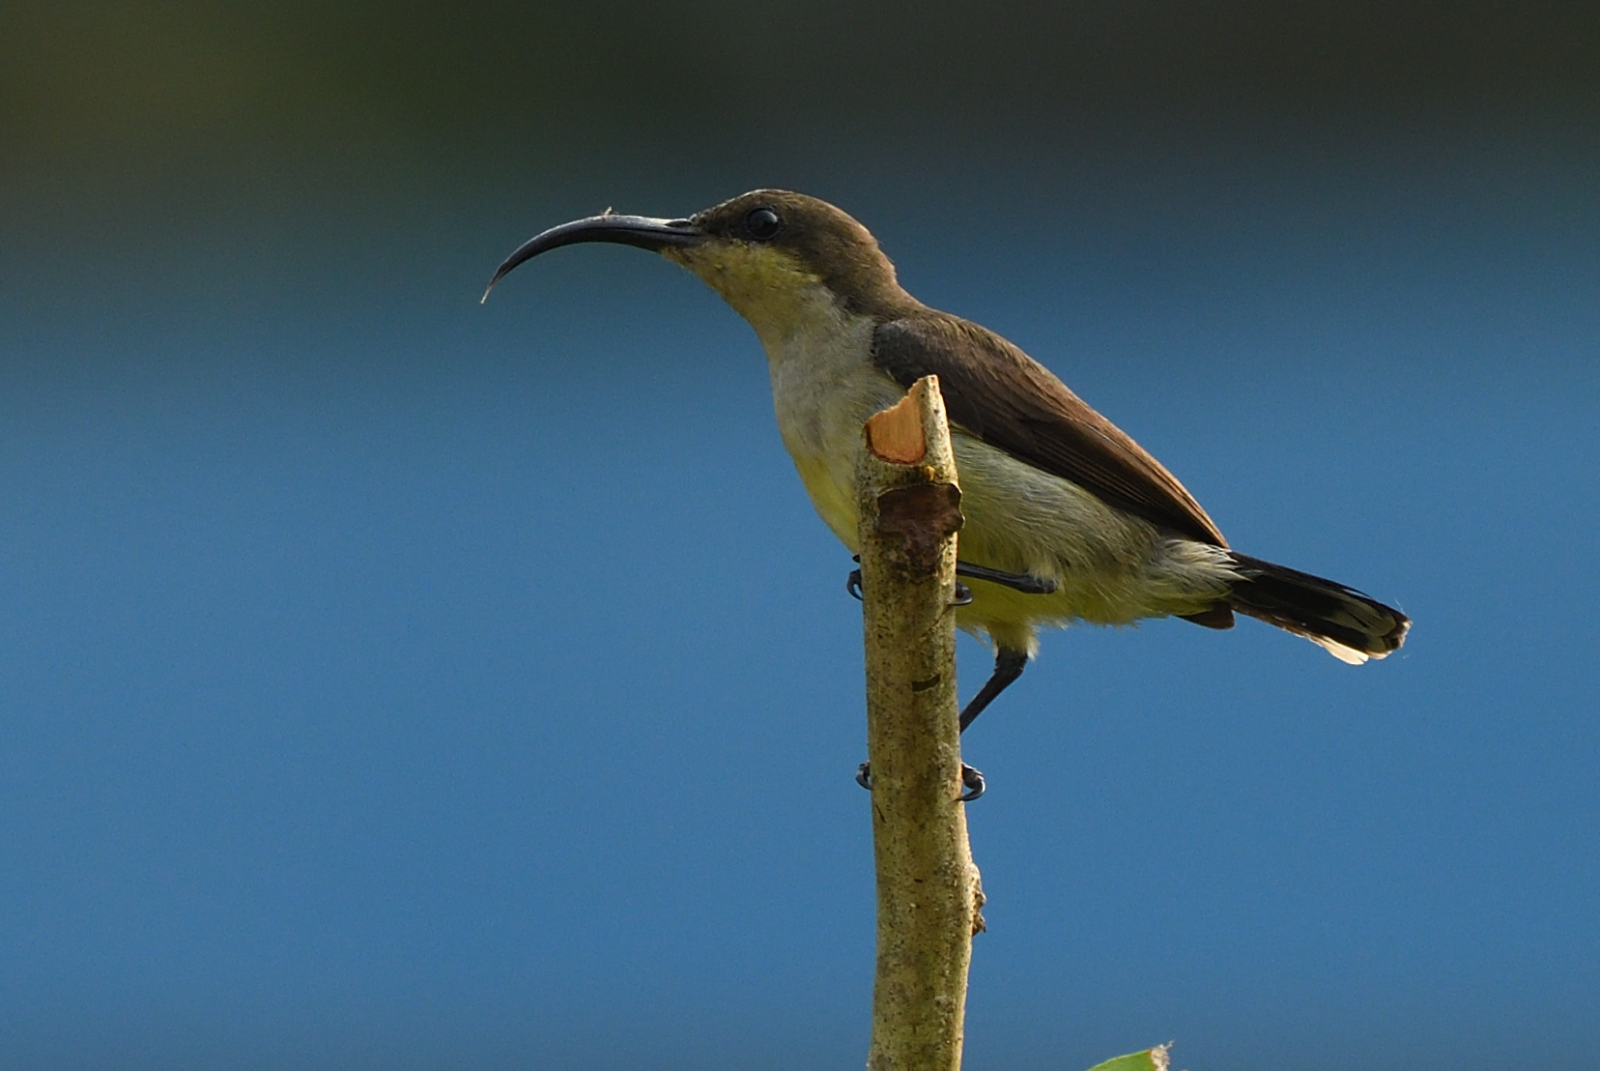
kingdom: Animalia
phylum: Chordata
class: Aves
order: Passeriformes
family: Nectariniidae
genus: Cinnyris
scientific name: Cinnyris lotenius
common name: Loten's sunbird
